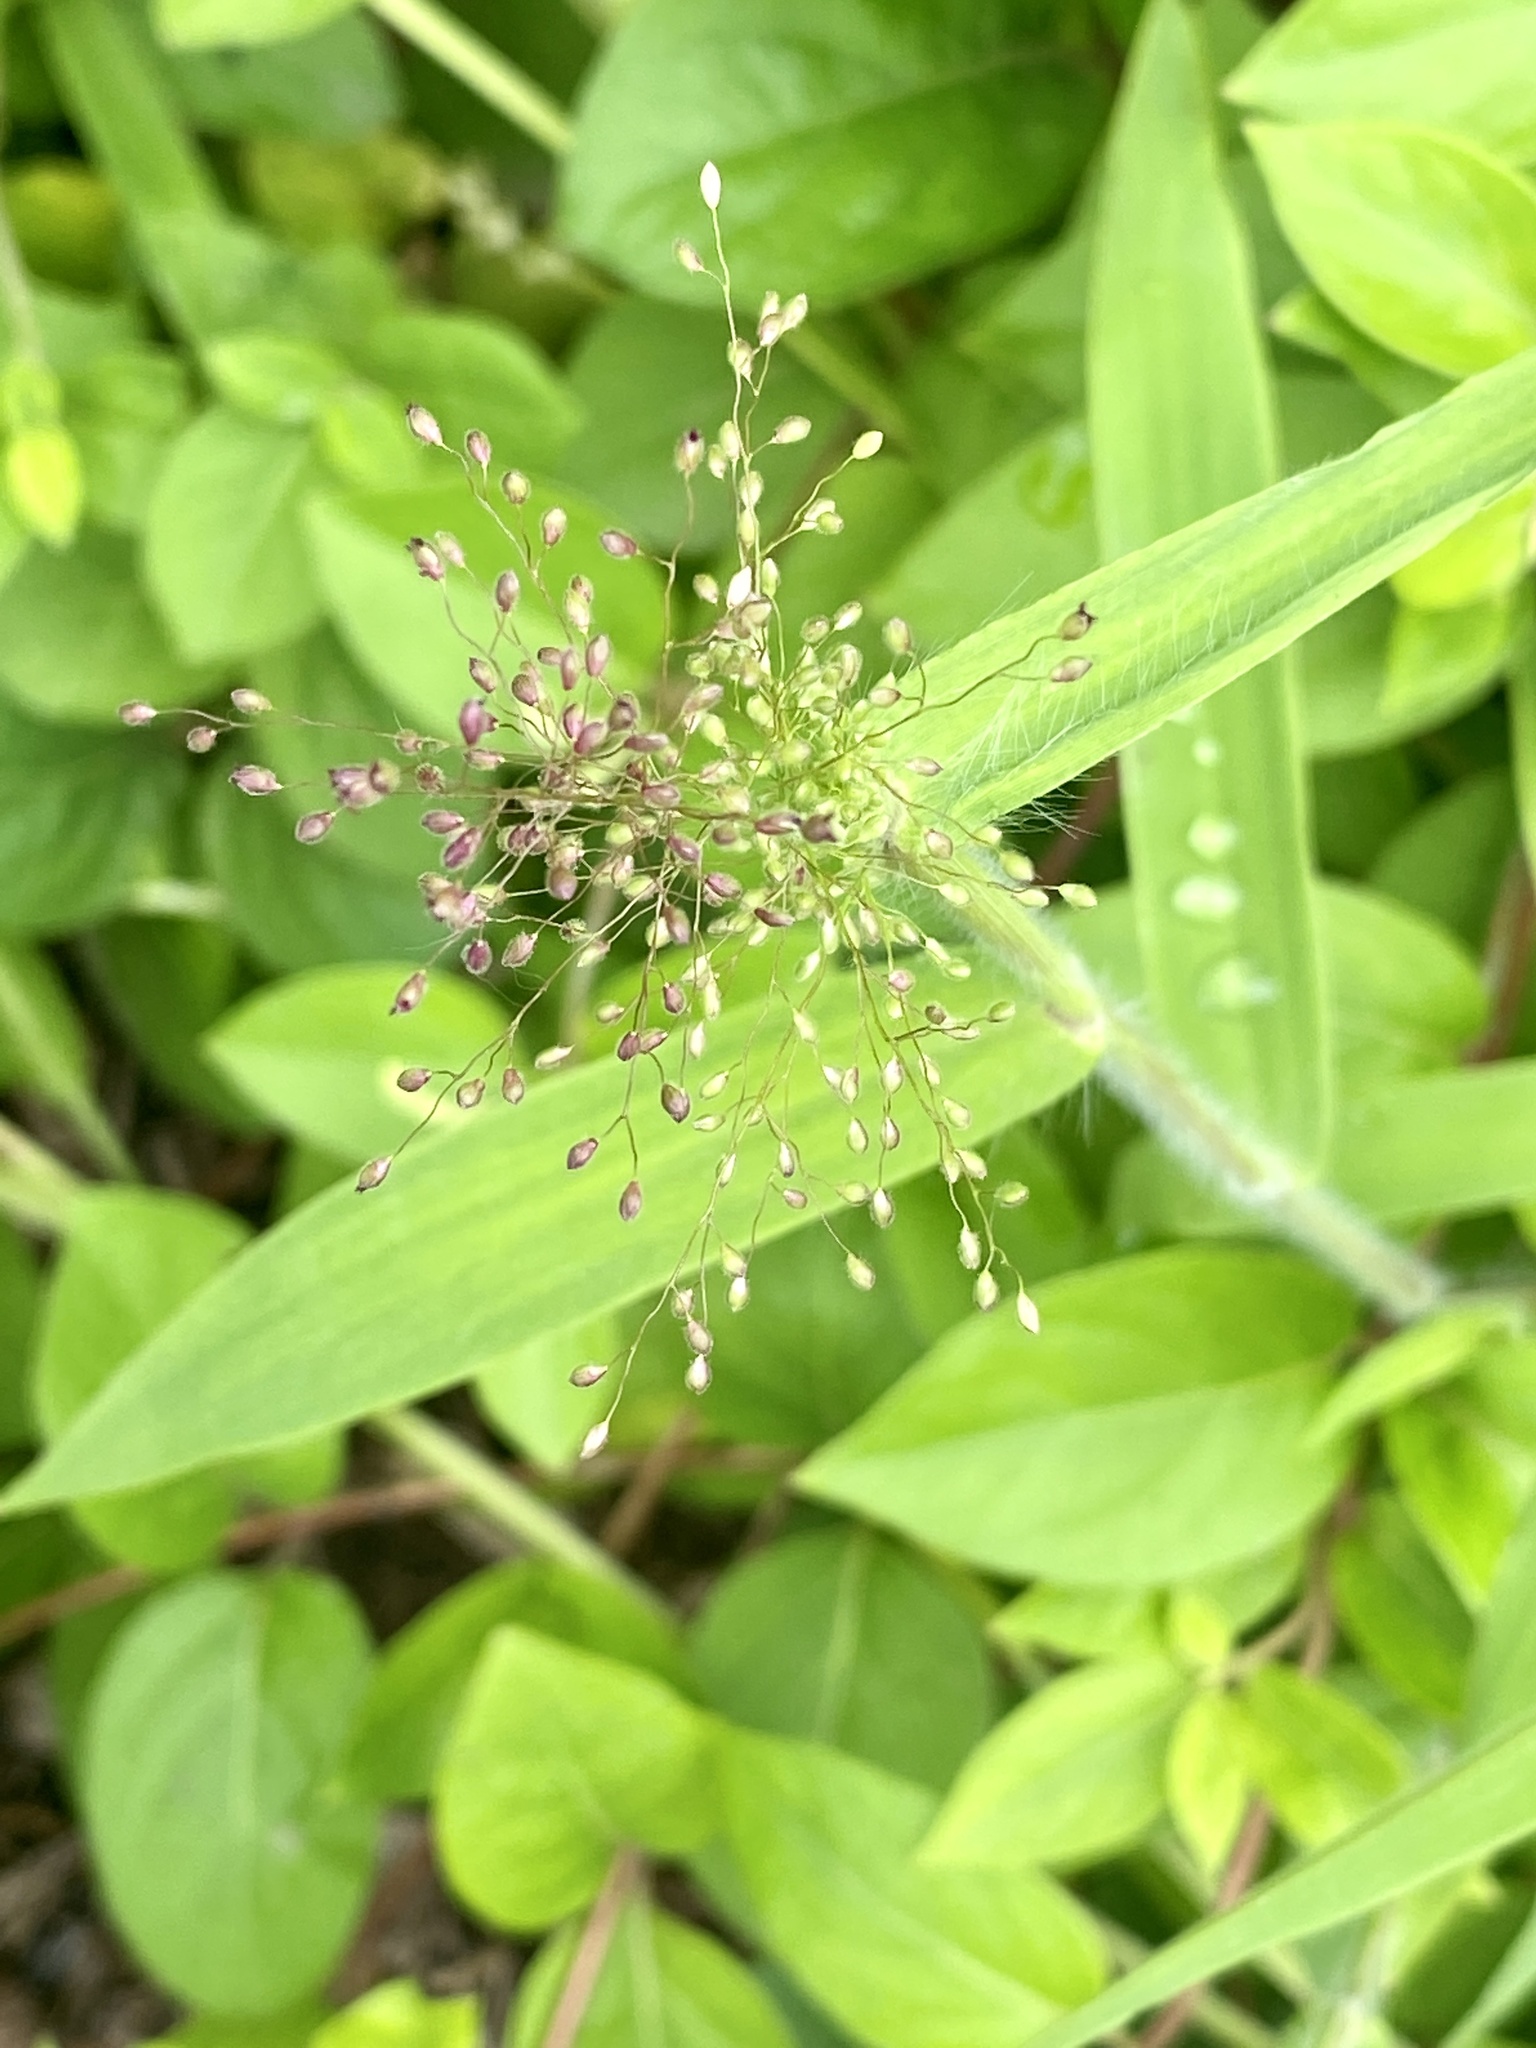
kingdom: Plantae
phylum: Tracheophyta
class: Liliopsida
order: Poales
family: Poaceae
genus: Dichanthelium
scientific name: Dichanthelium clandestinum
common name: Deer-tongue grass
